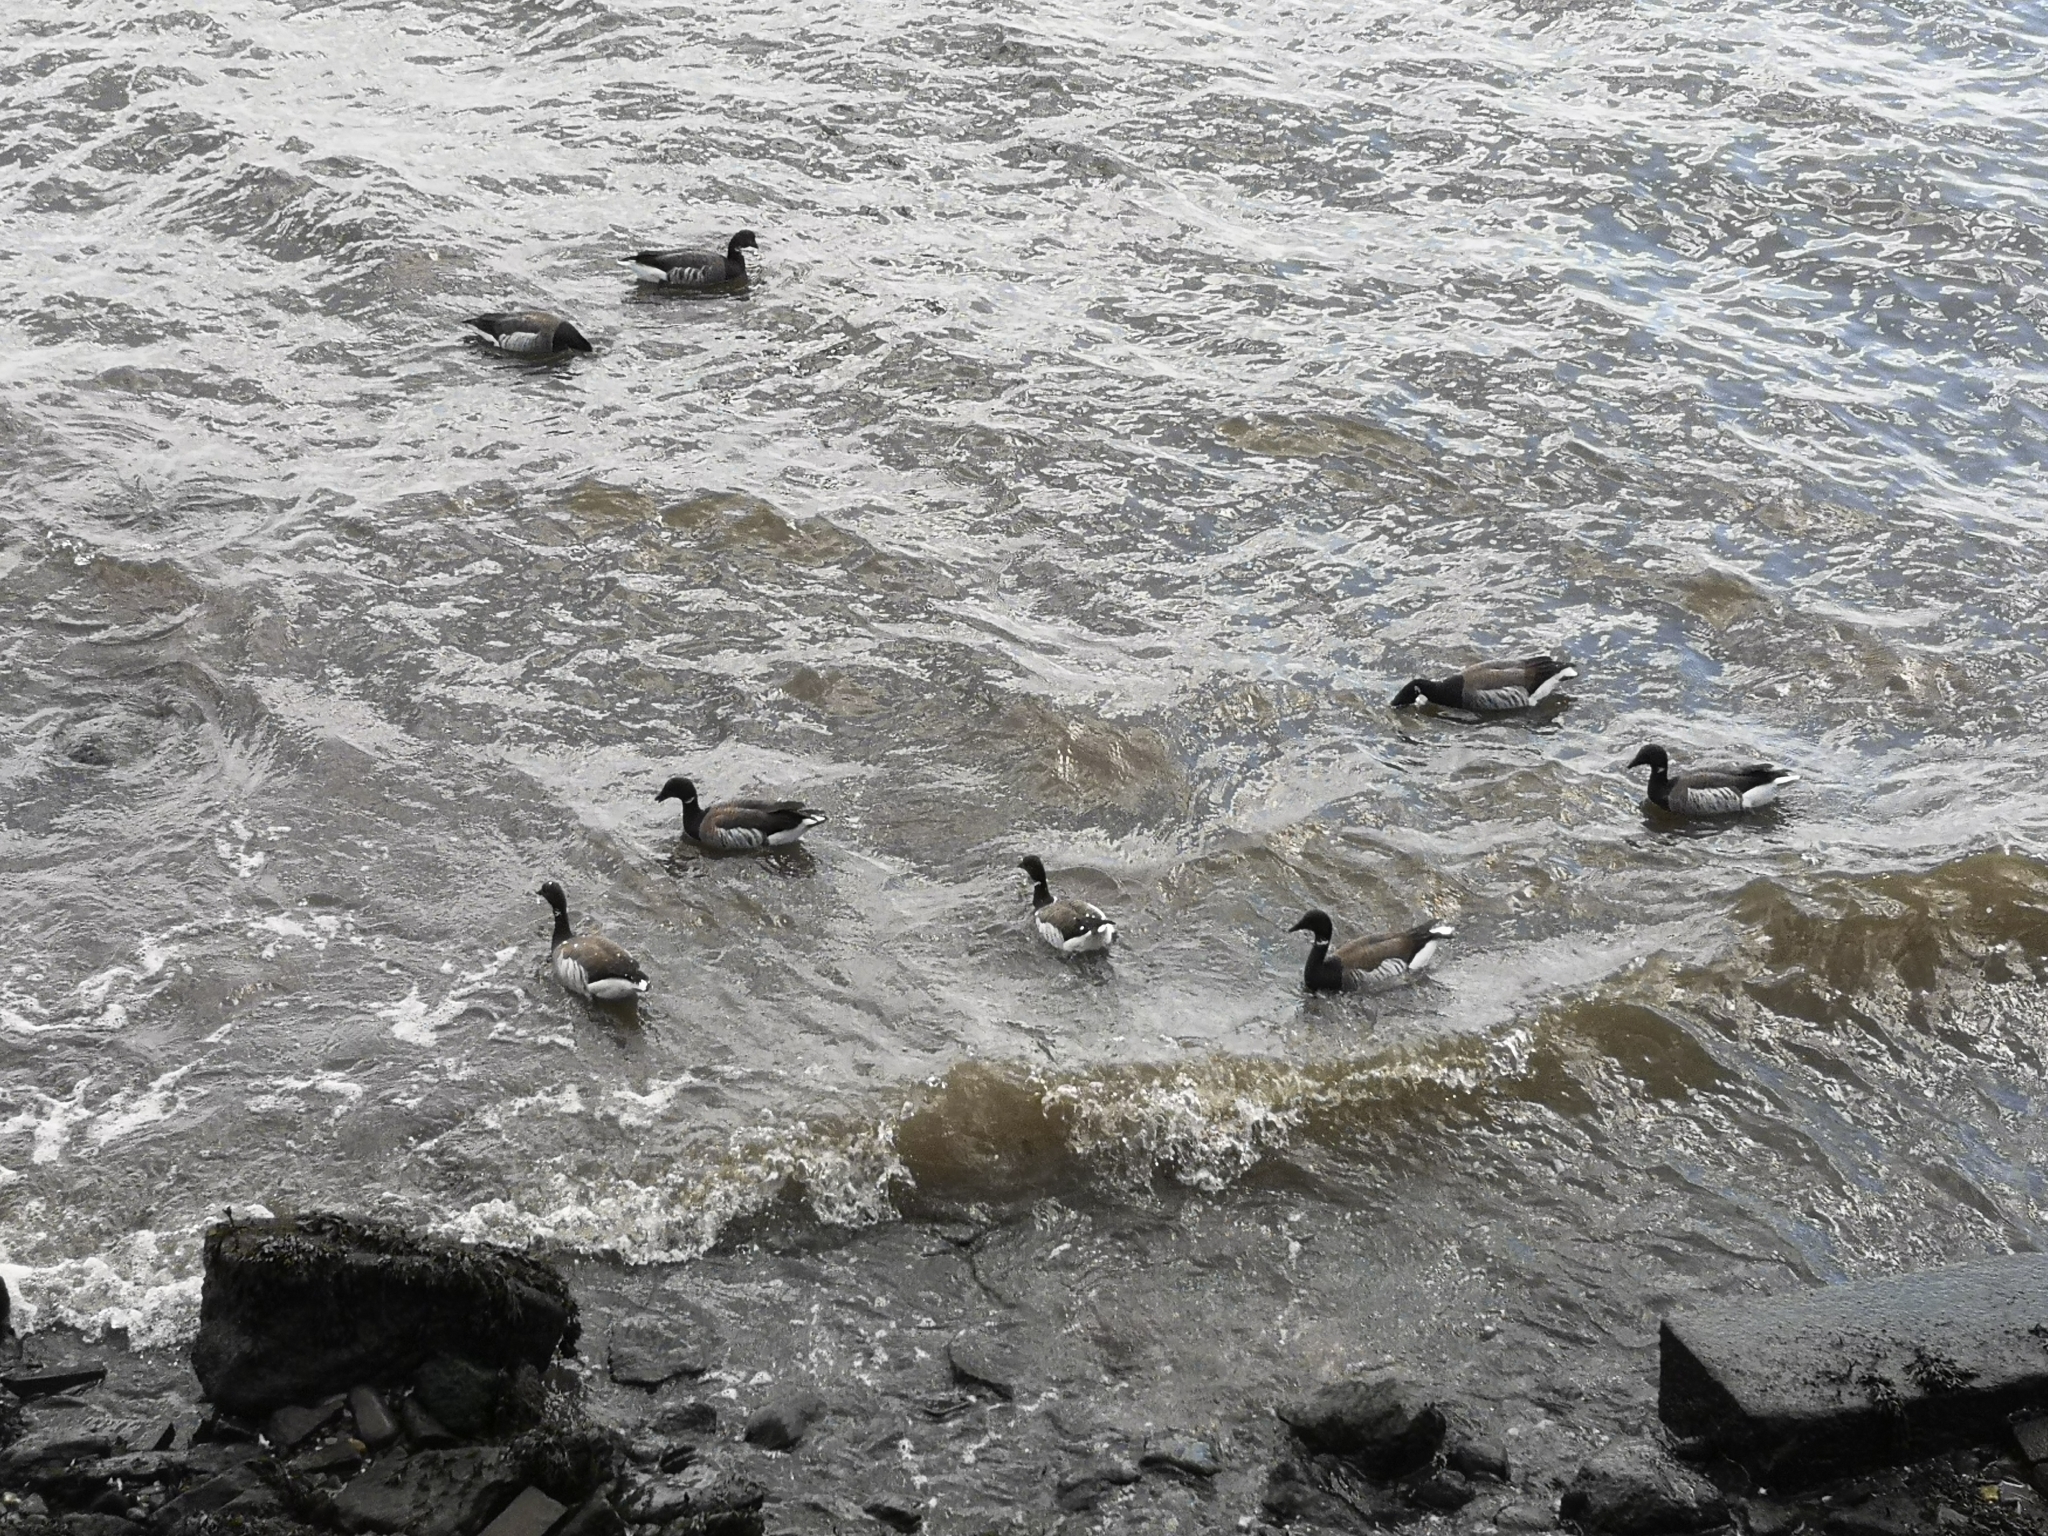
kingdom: Animalia
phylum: Chordata
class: Aves
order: Anseriformes
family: Anatidae
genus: Branta
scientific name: Branta bernicla
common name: Brant goose
